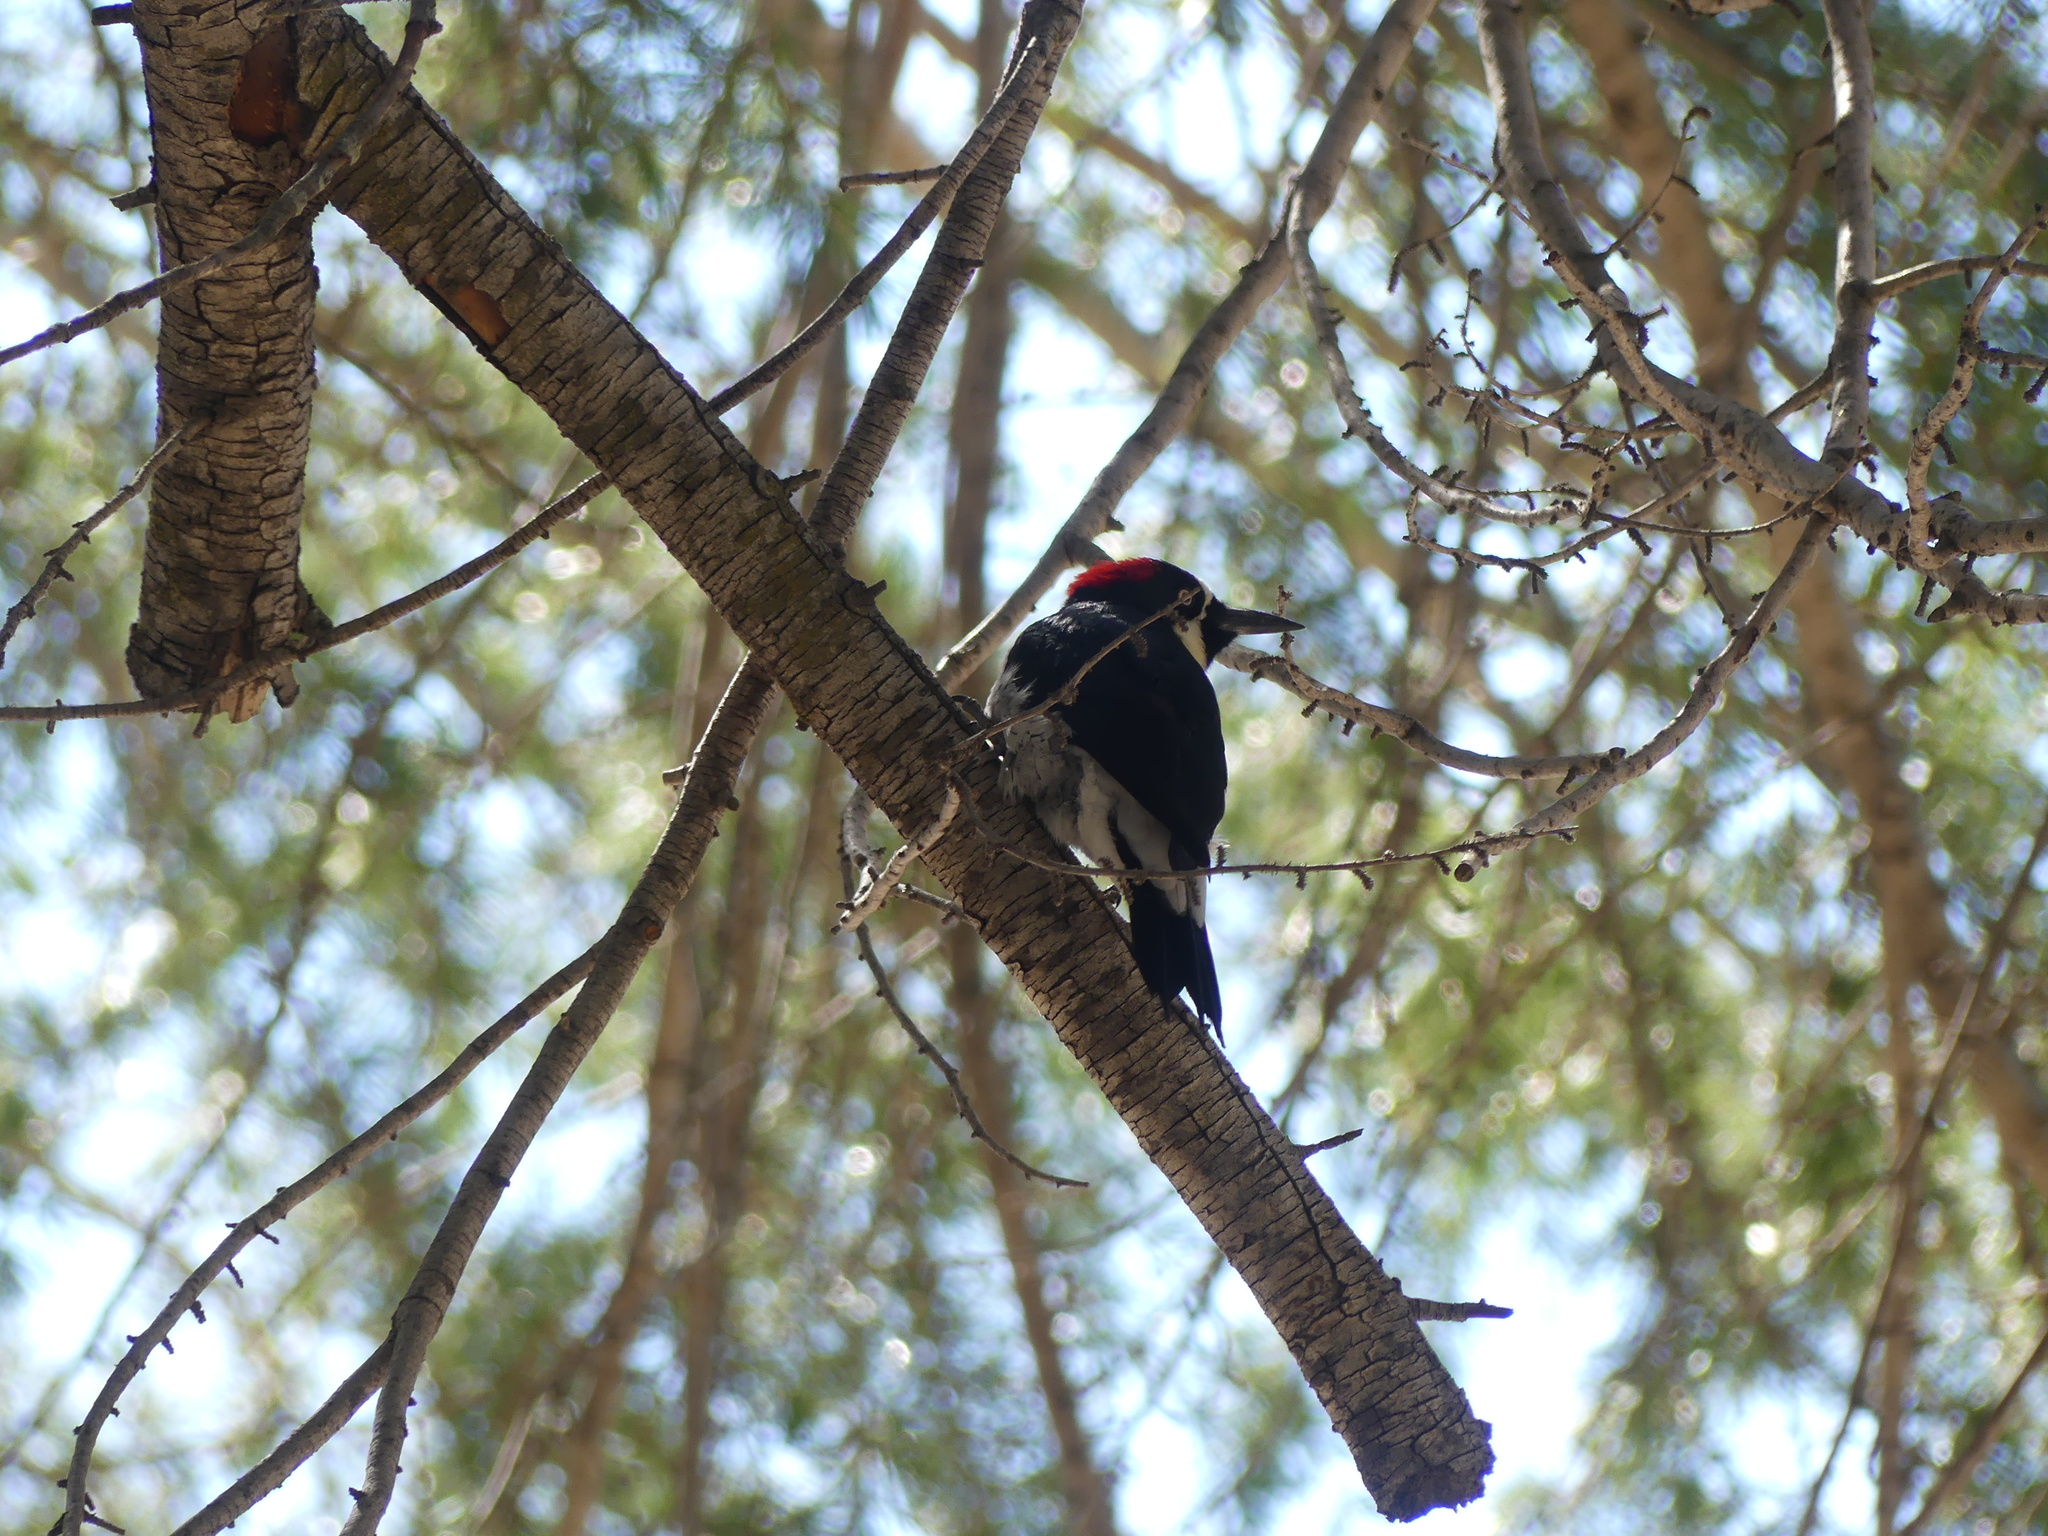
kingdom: Animalia
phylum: Chordata
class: Aves
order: Piciformes
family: Picidae
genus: Melanerpes
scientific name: Melanerpes formicivorus
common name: Acorn woodpecker
